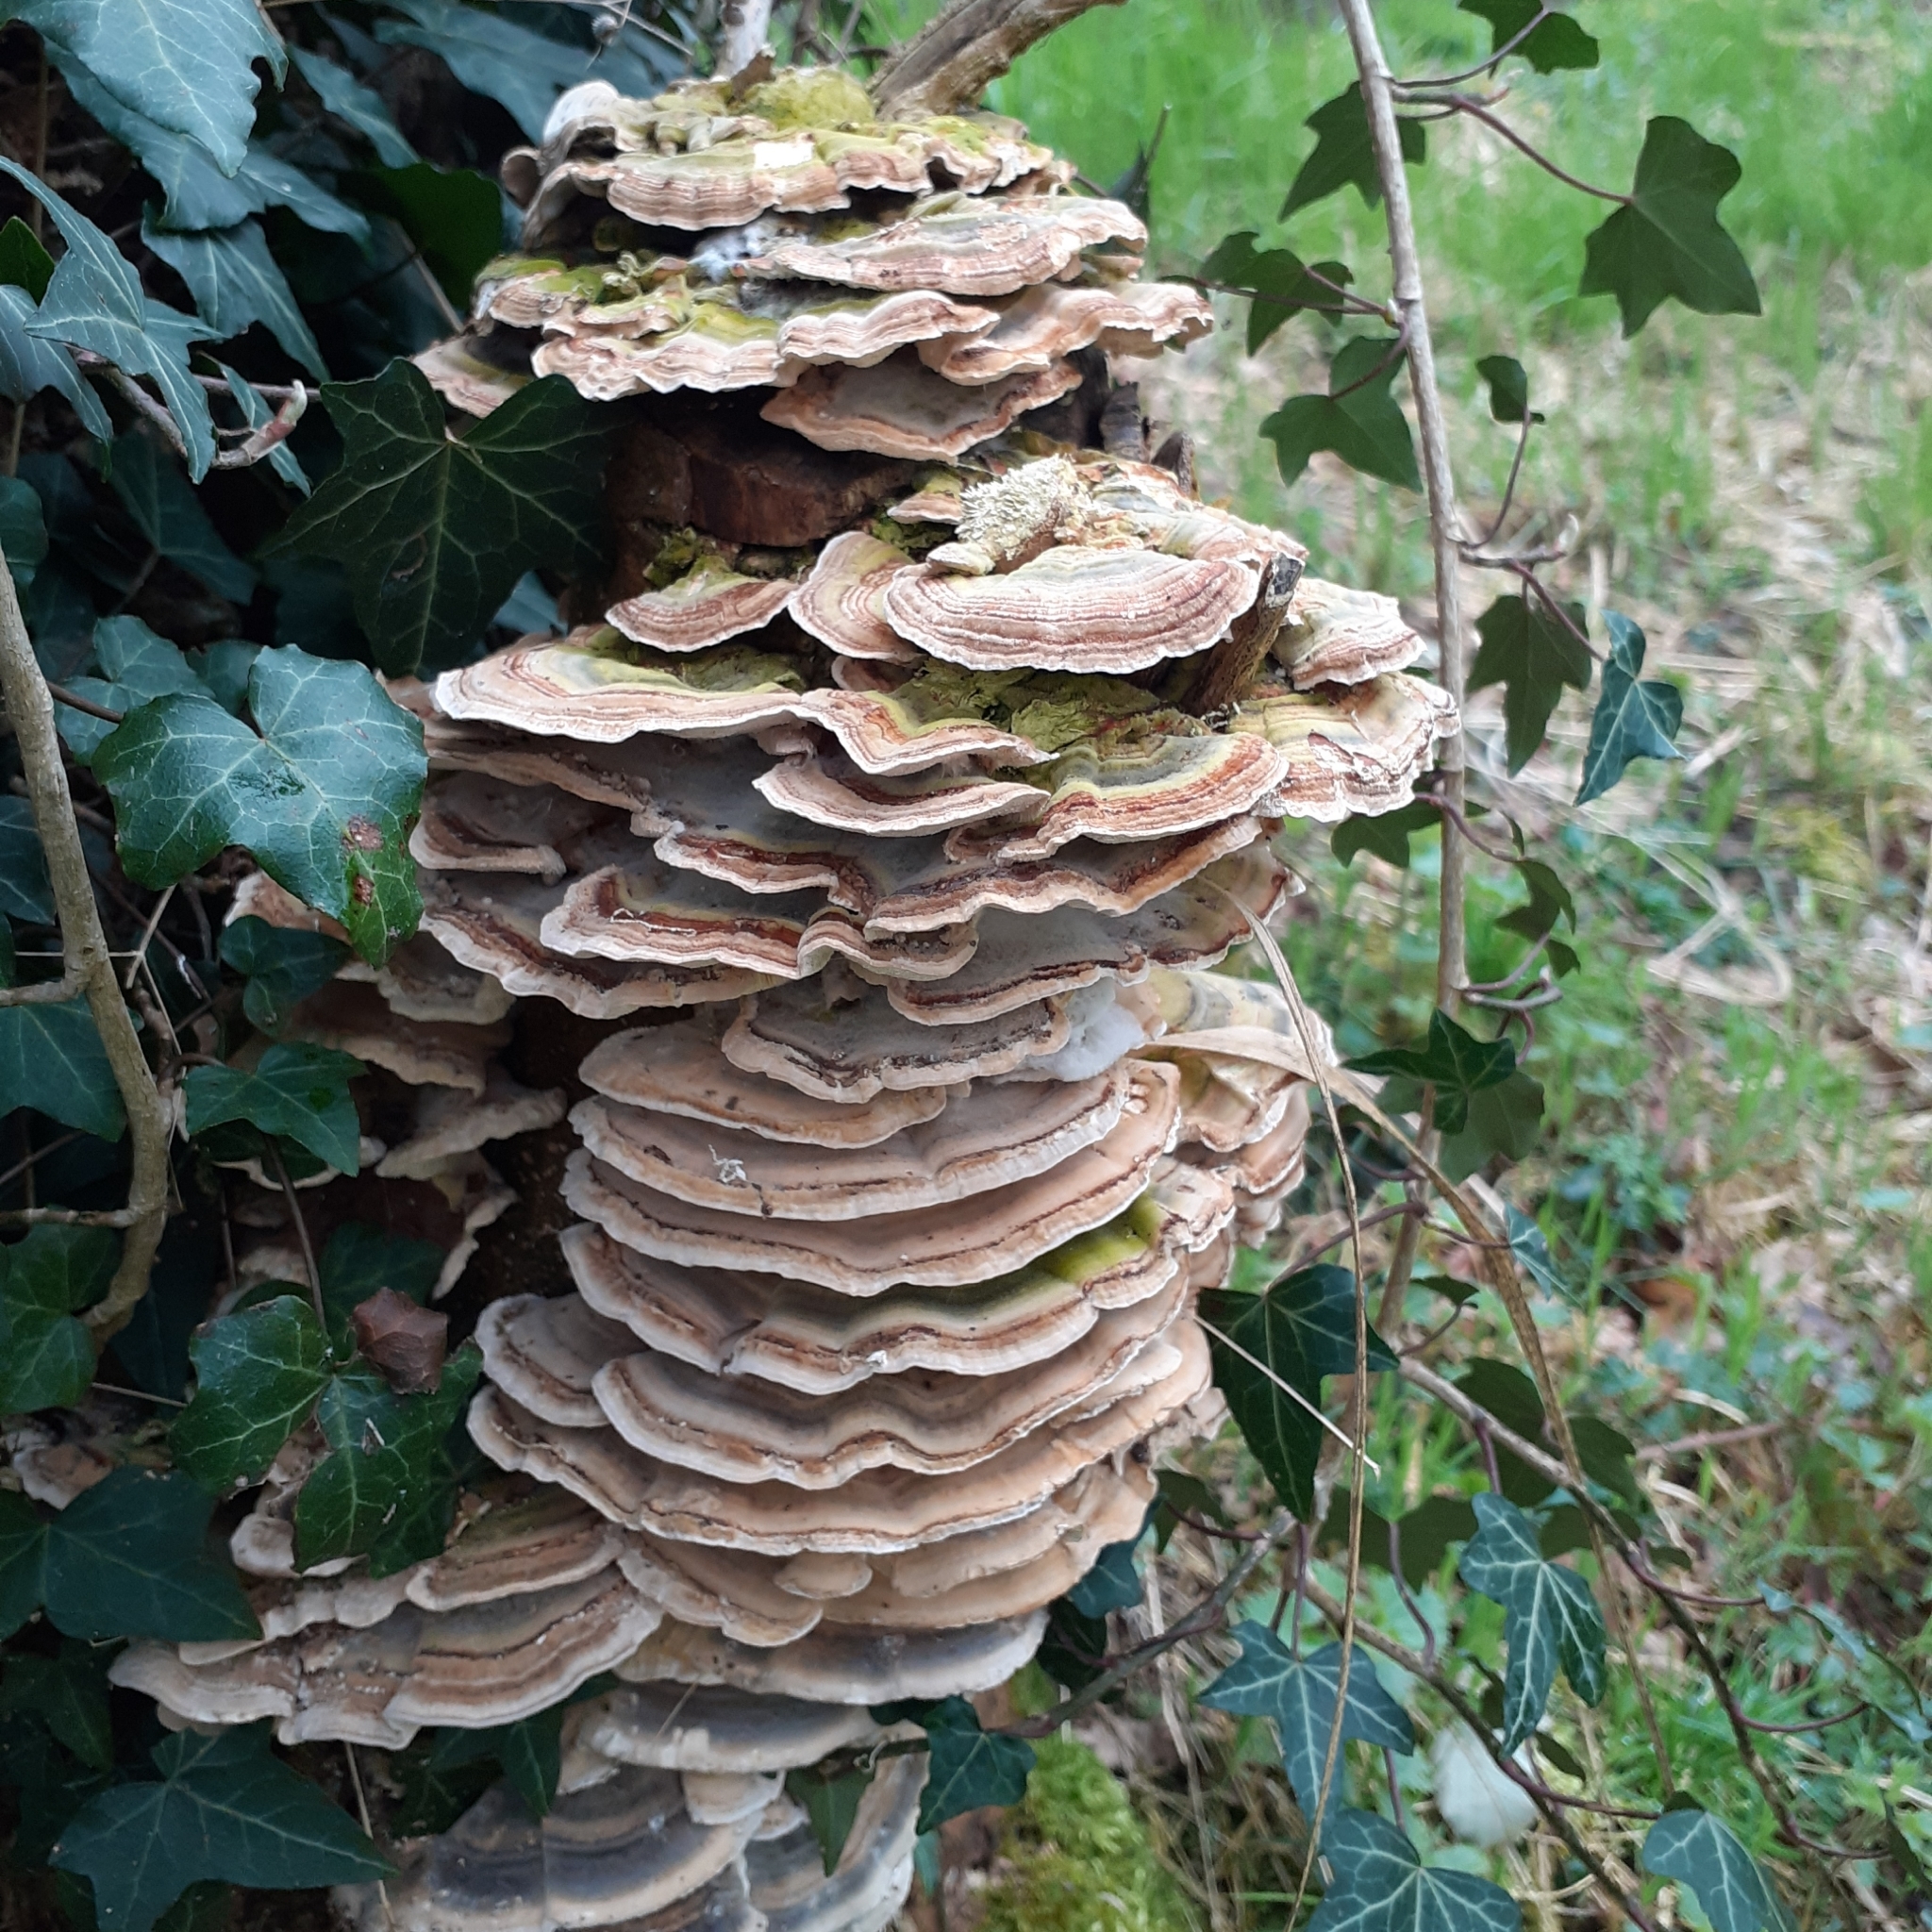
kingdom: Fungi
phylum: Basidiomycota
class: Agaricomycetes
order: Polyporales
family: Polyporaceae
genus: Trametes
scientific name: Trametes versicolor
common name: Turkeytail
